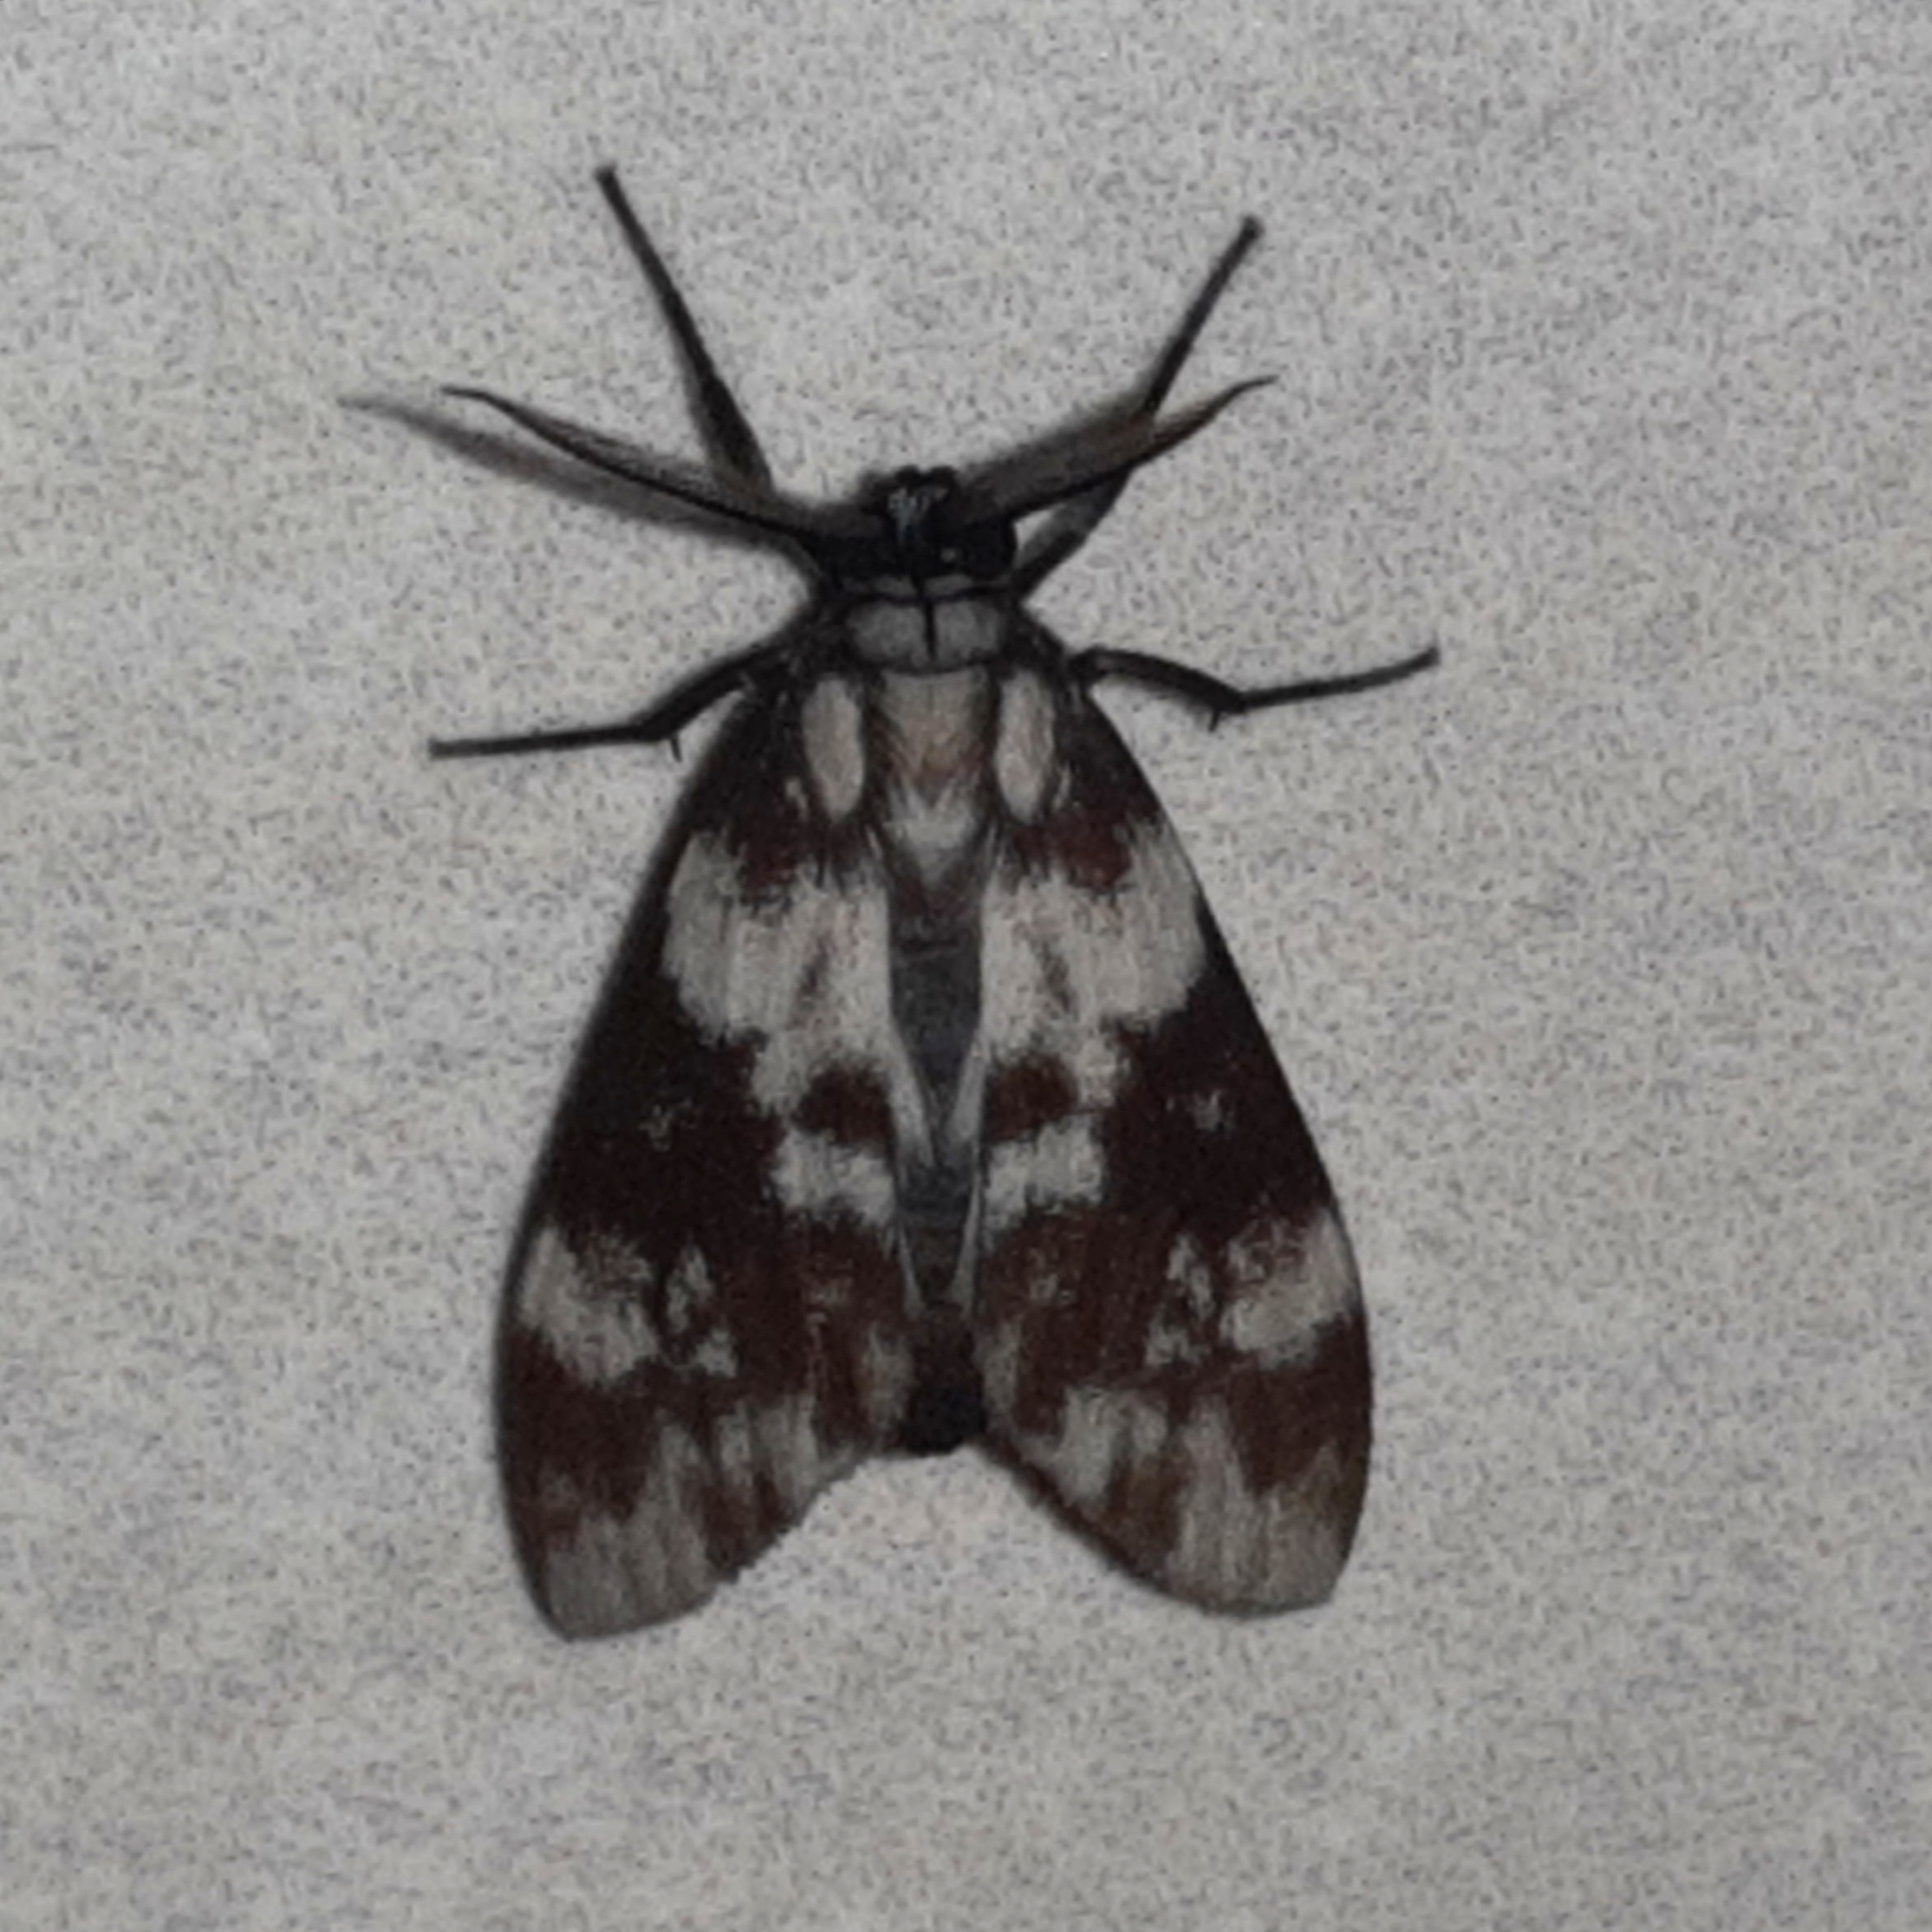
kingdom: Animalia
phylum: Arthropoda
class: Insecta
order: Lepidoptera
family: Erebidae
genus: Eucereon
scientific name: Eucereon discolor
